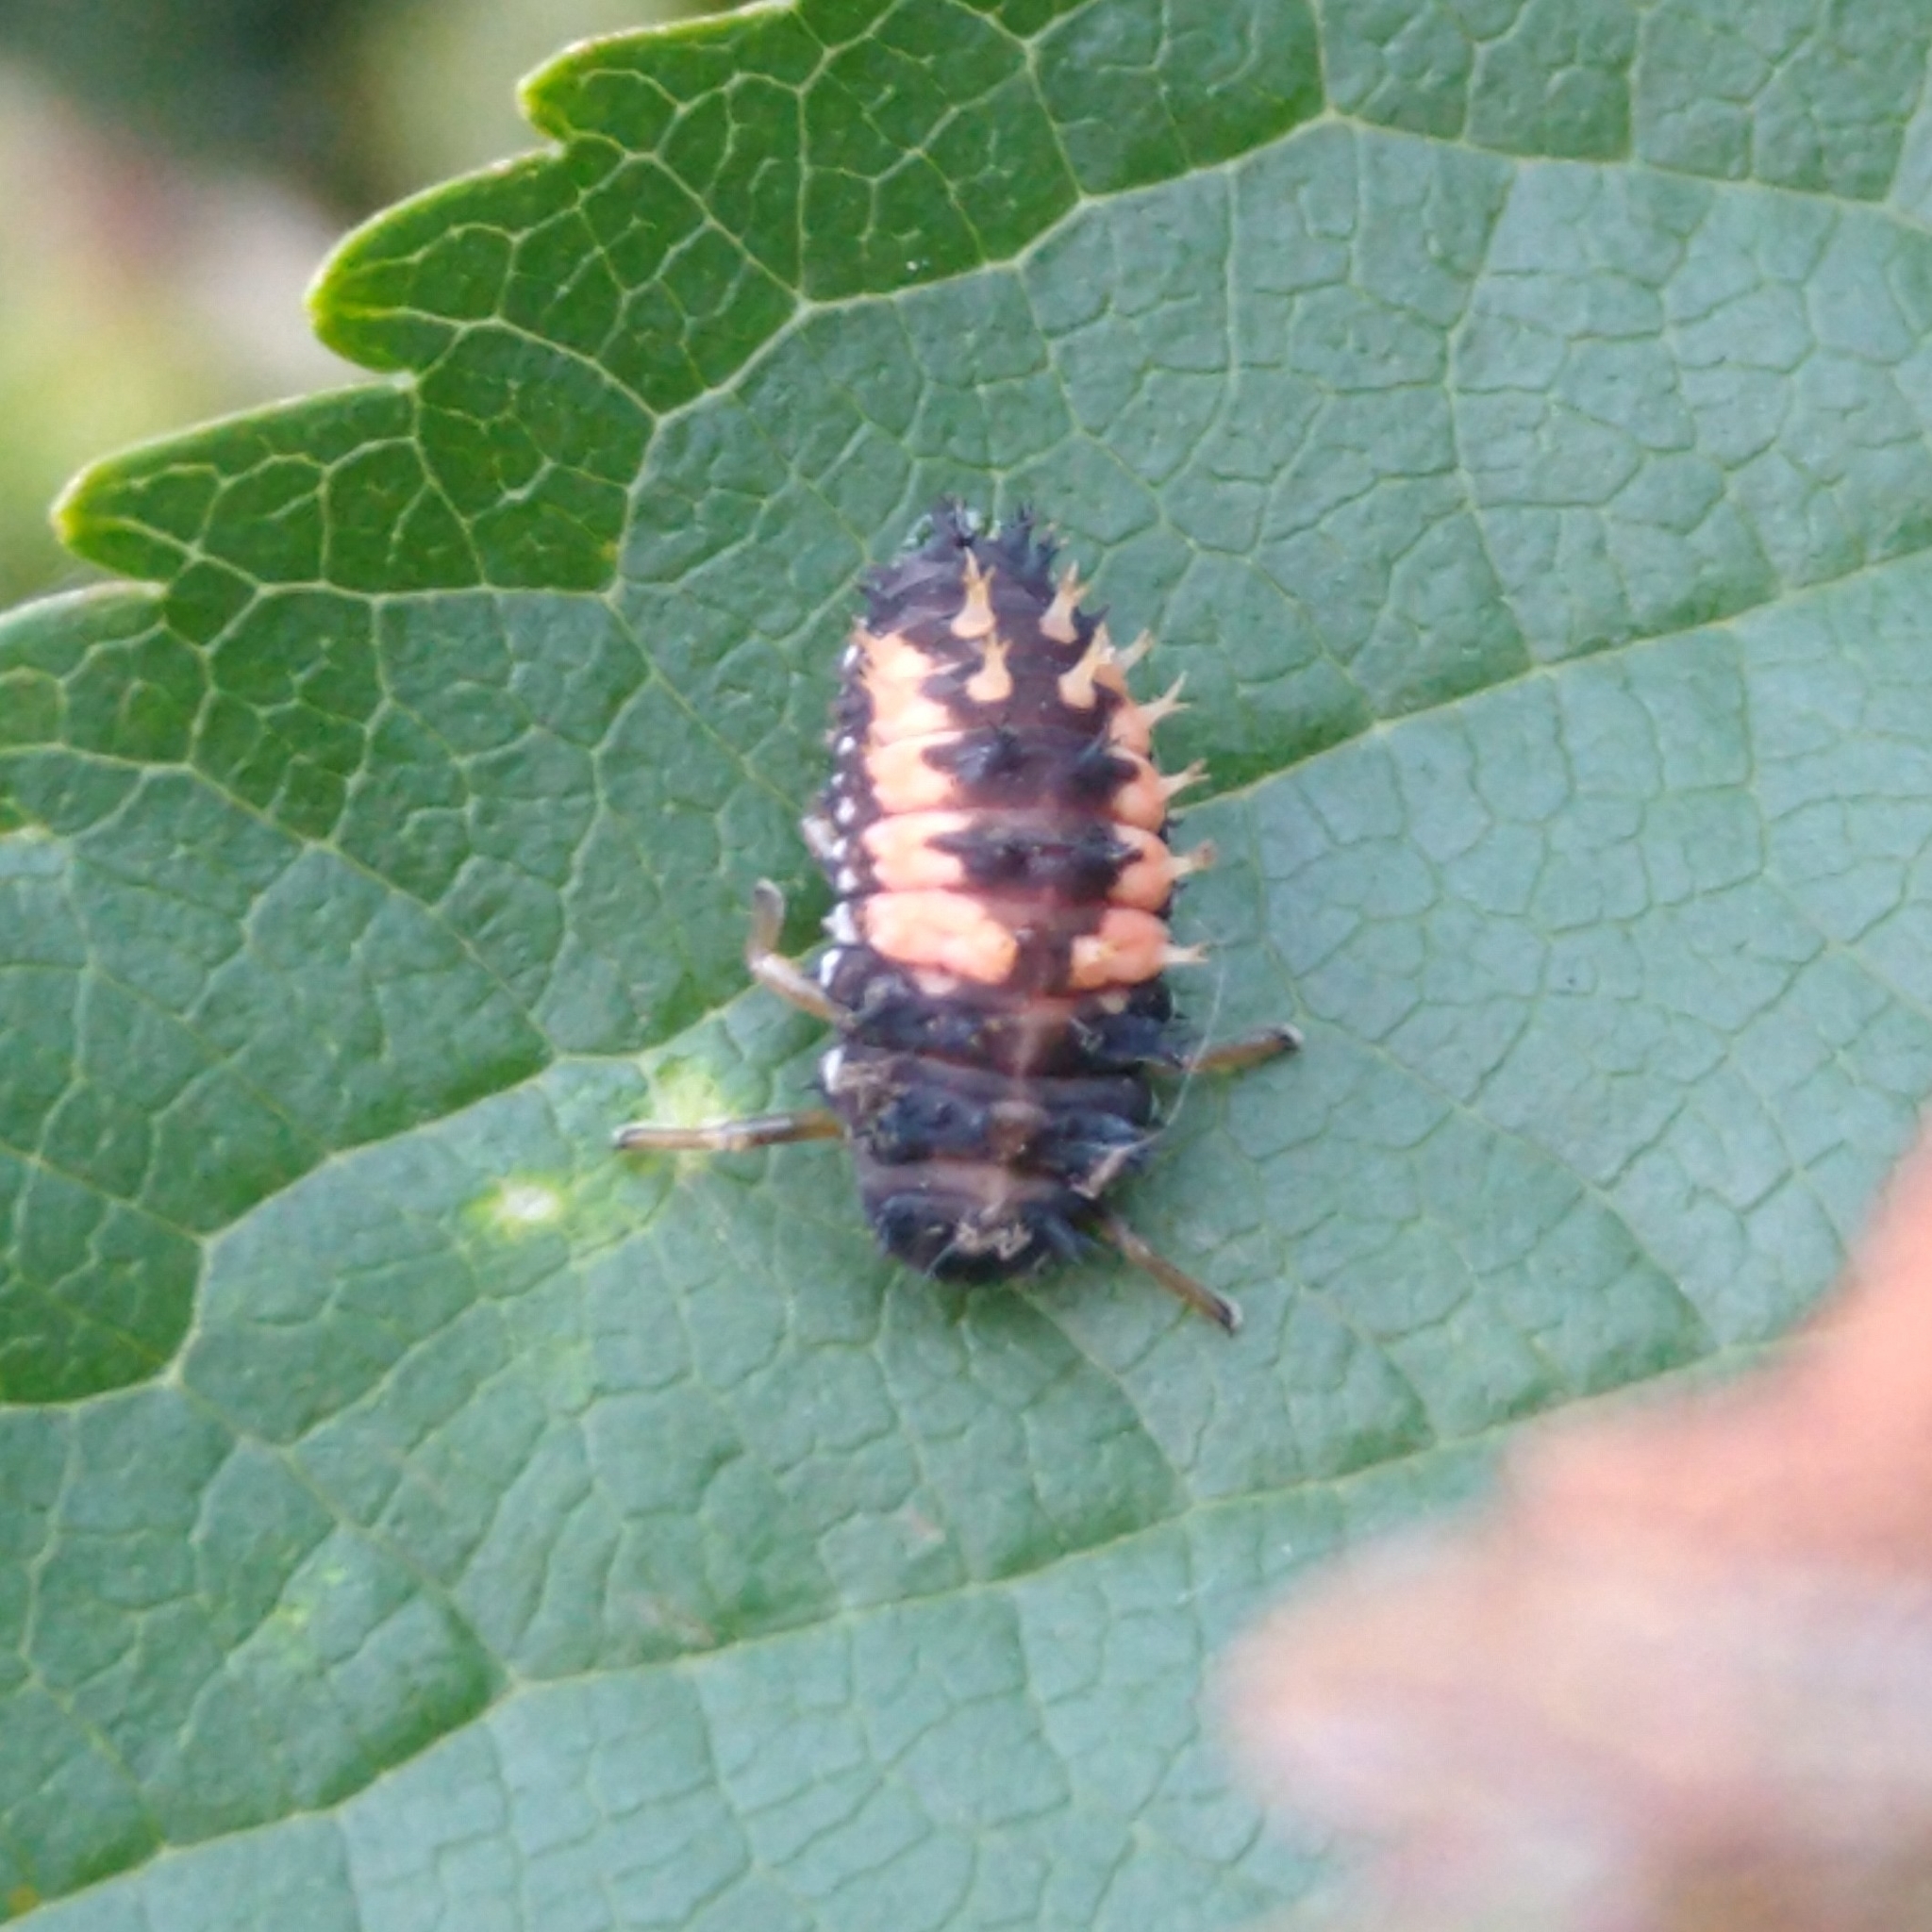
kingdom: Animalia
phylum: Arthropoda
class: Insecta
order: Coleoptera
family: Coccinellidae
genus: Harmonia
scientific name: Harmonia axyridis
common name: Harlequin ladybird
